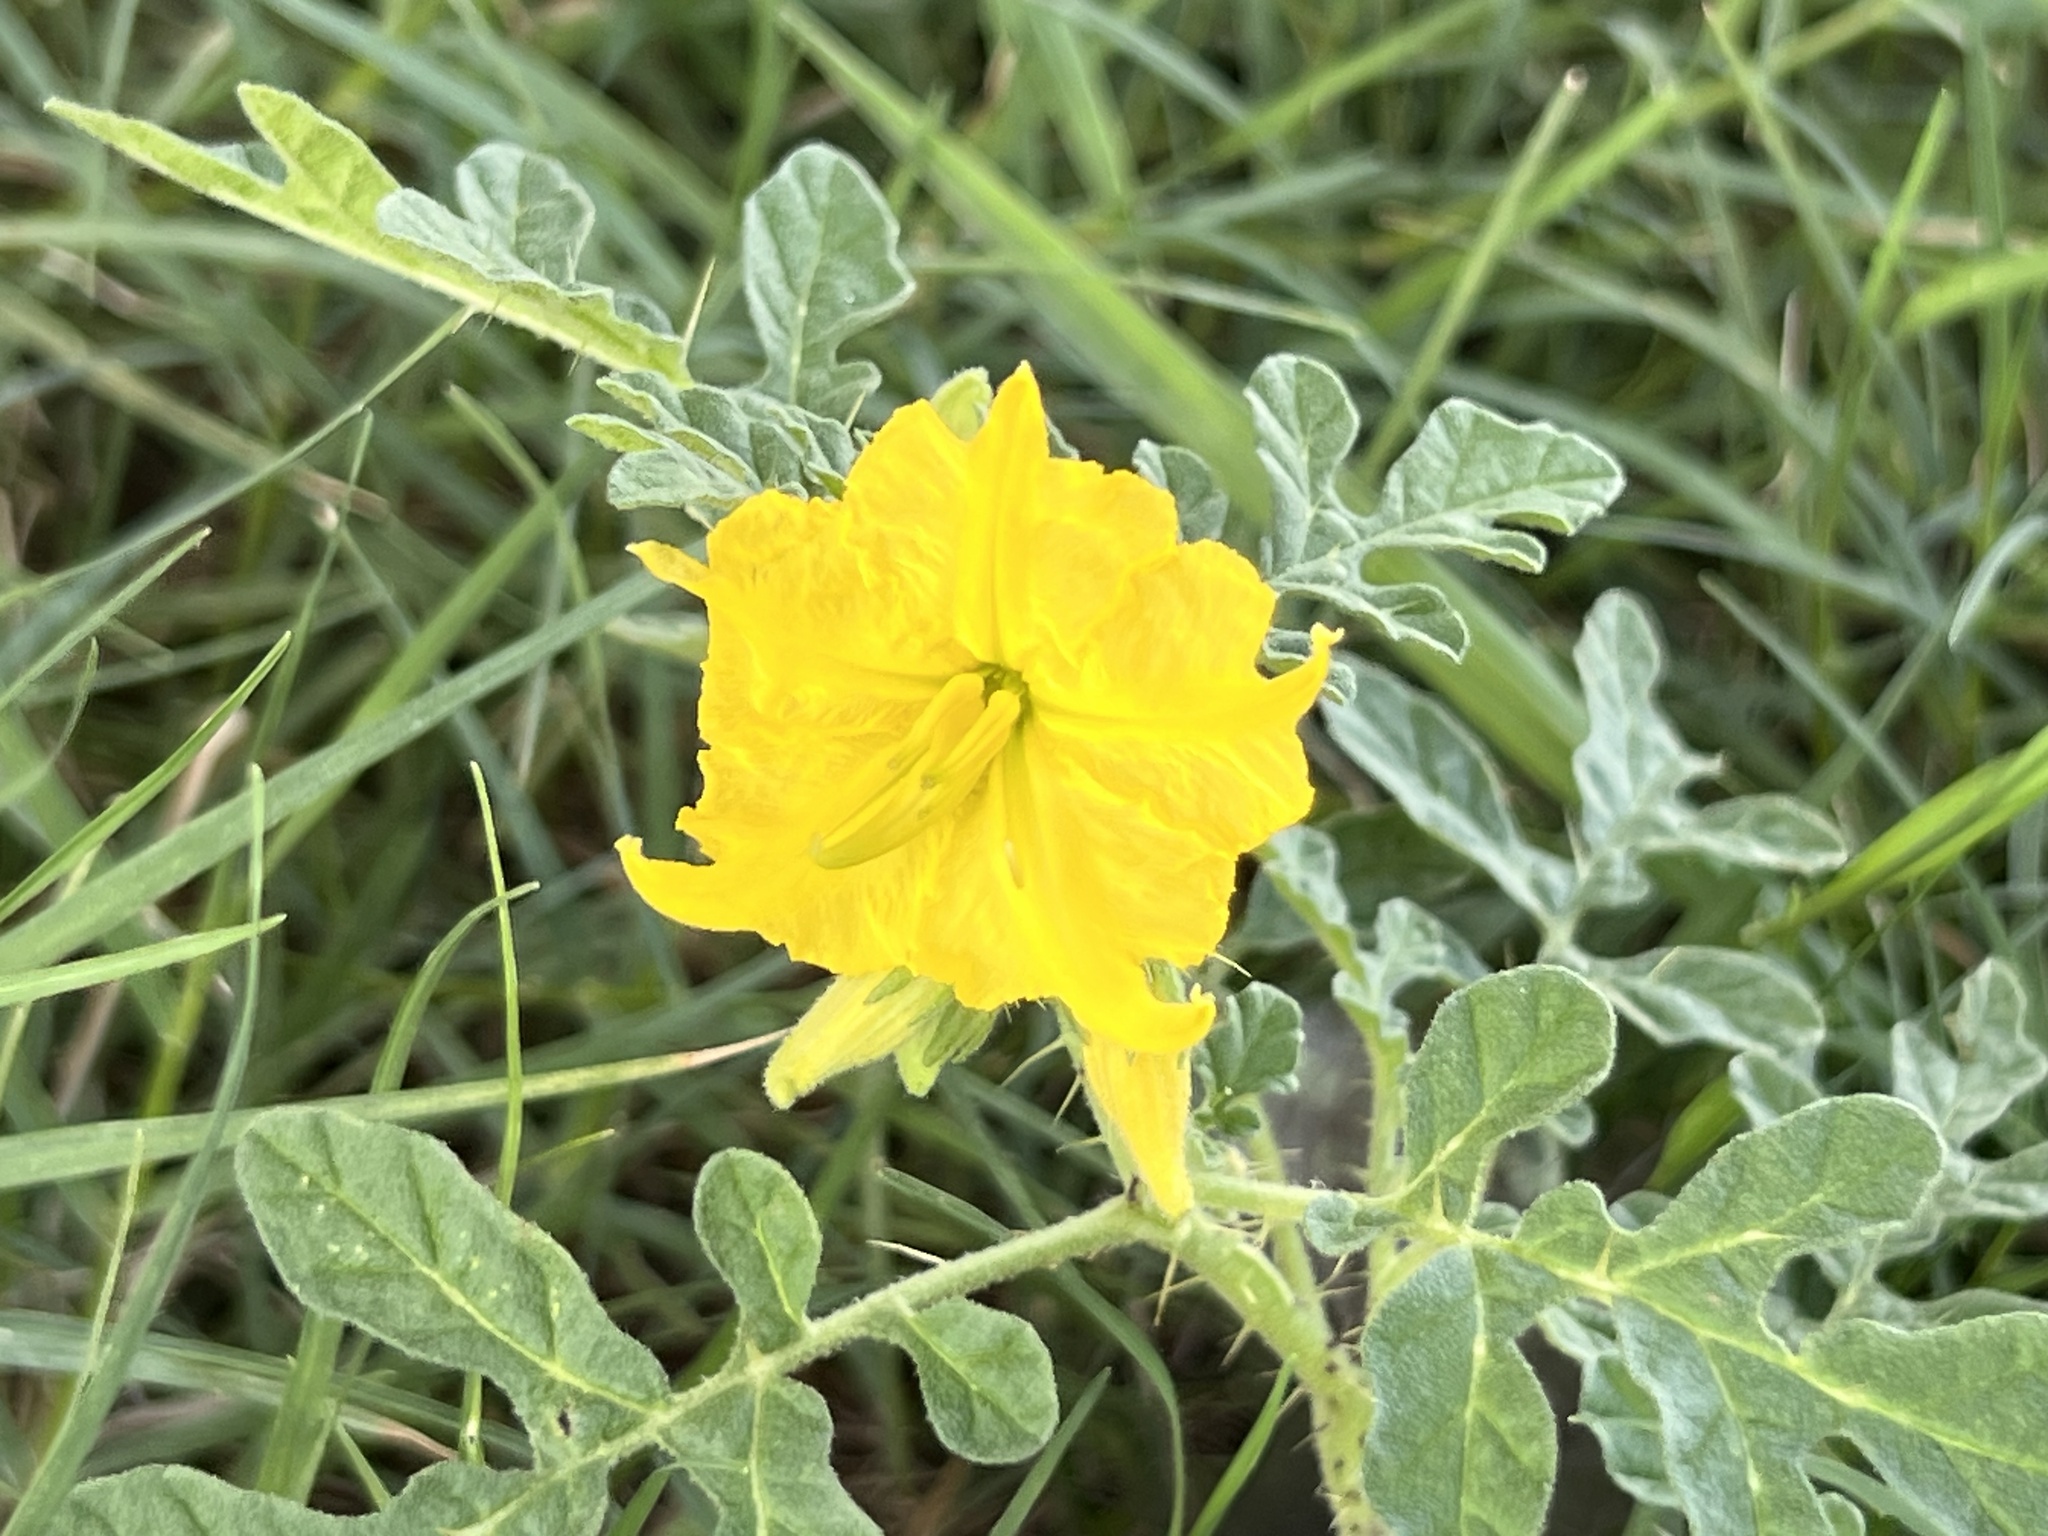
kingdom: Plantae
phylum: Tracheophyta
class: Magnoliopsida
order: Solanales
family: Solanaceae
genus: Solanum
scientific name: Solanum angustifolium
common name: Buffalobur nightshade
